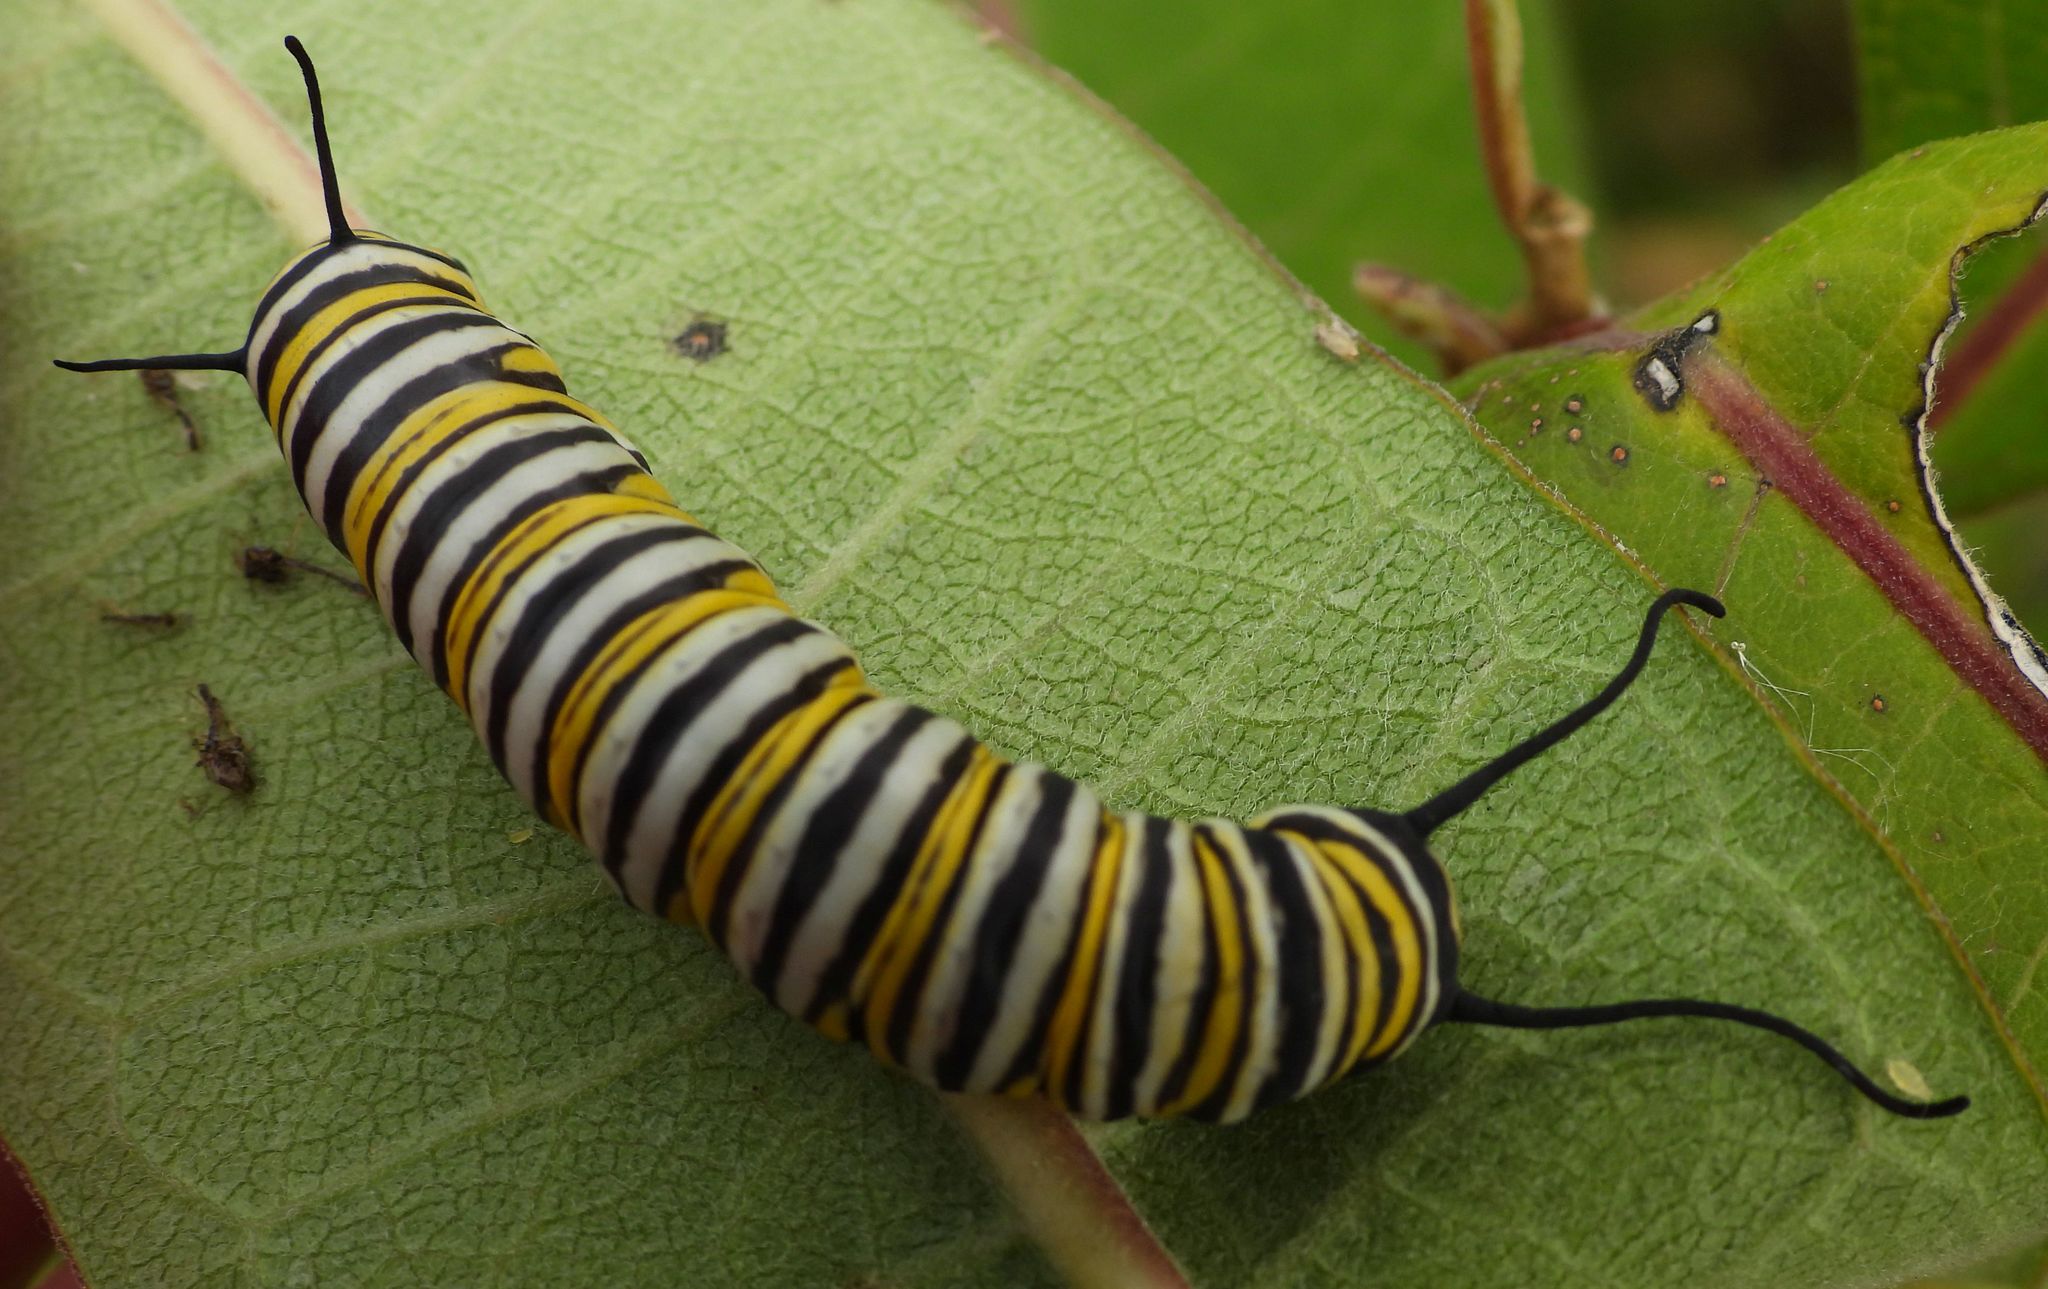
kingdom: Animalia
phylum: Arthropoda
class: Insecta
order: Lepidoptera
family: Nymphalidae
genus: Danaus
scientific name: Danaus plexippus
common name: Monarch
